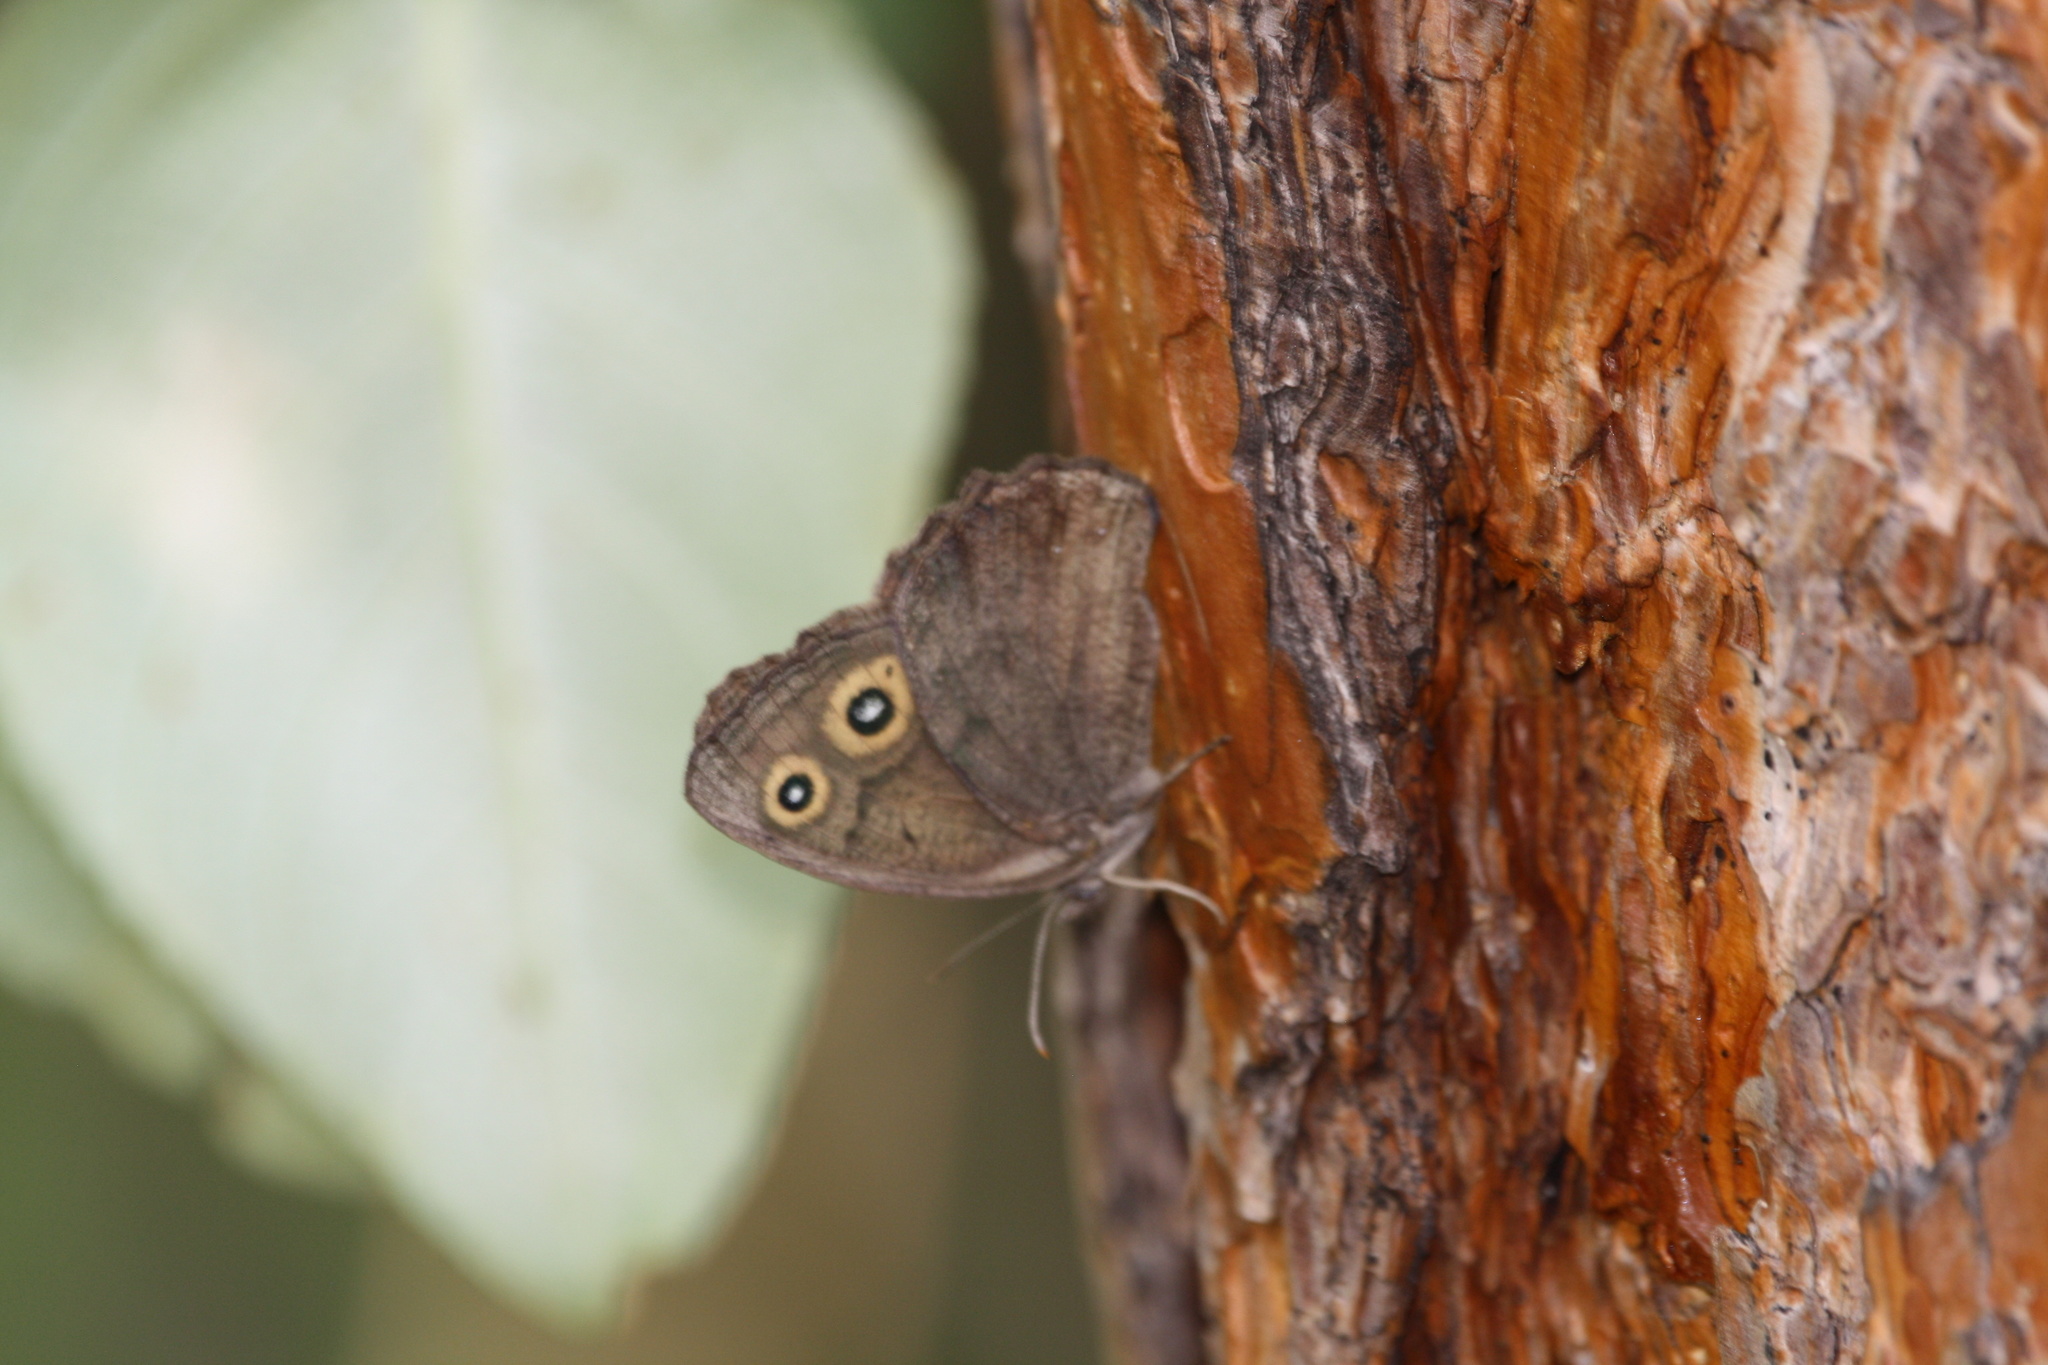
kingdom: Animalia
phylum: Arthropoda
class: Insecta
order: Lepidoptera
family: Nymphalidae
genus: Cercyonis
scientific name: Cercyonis pegala
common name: Common wood-nymph
